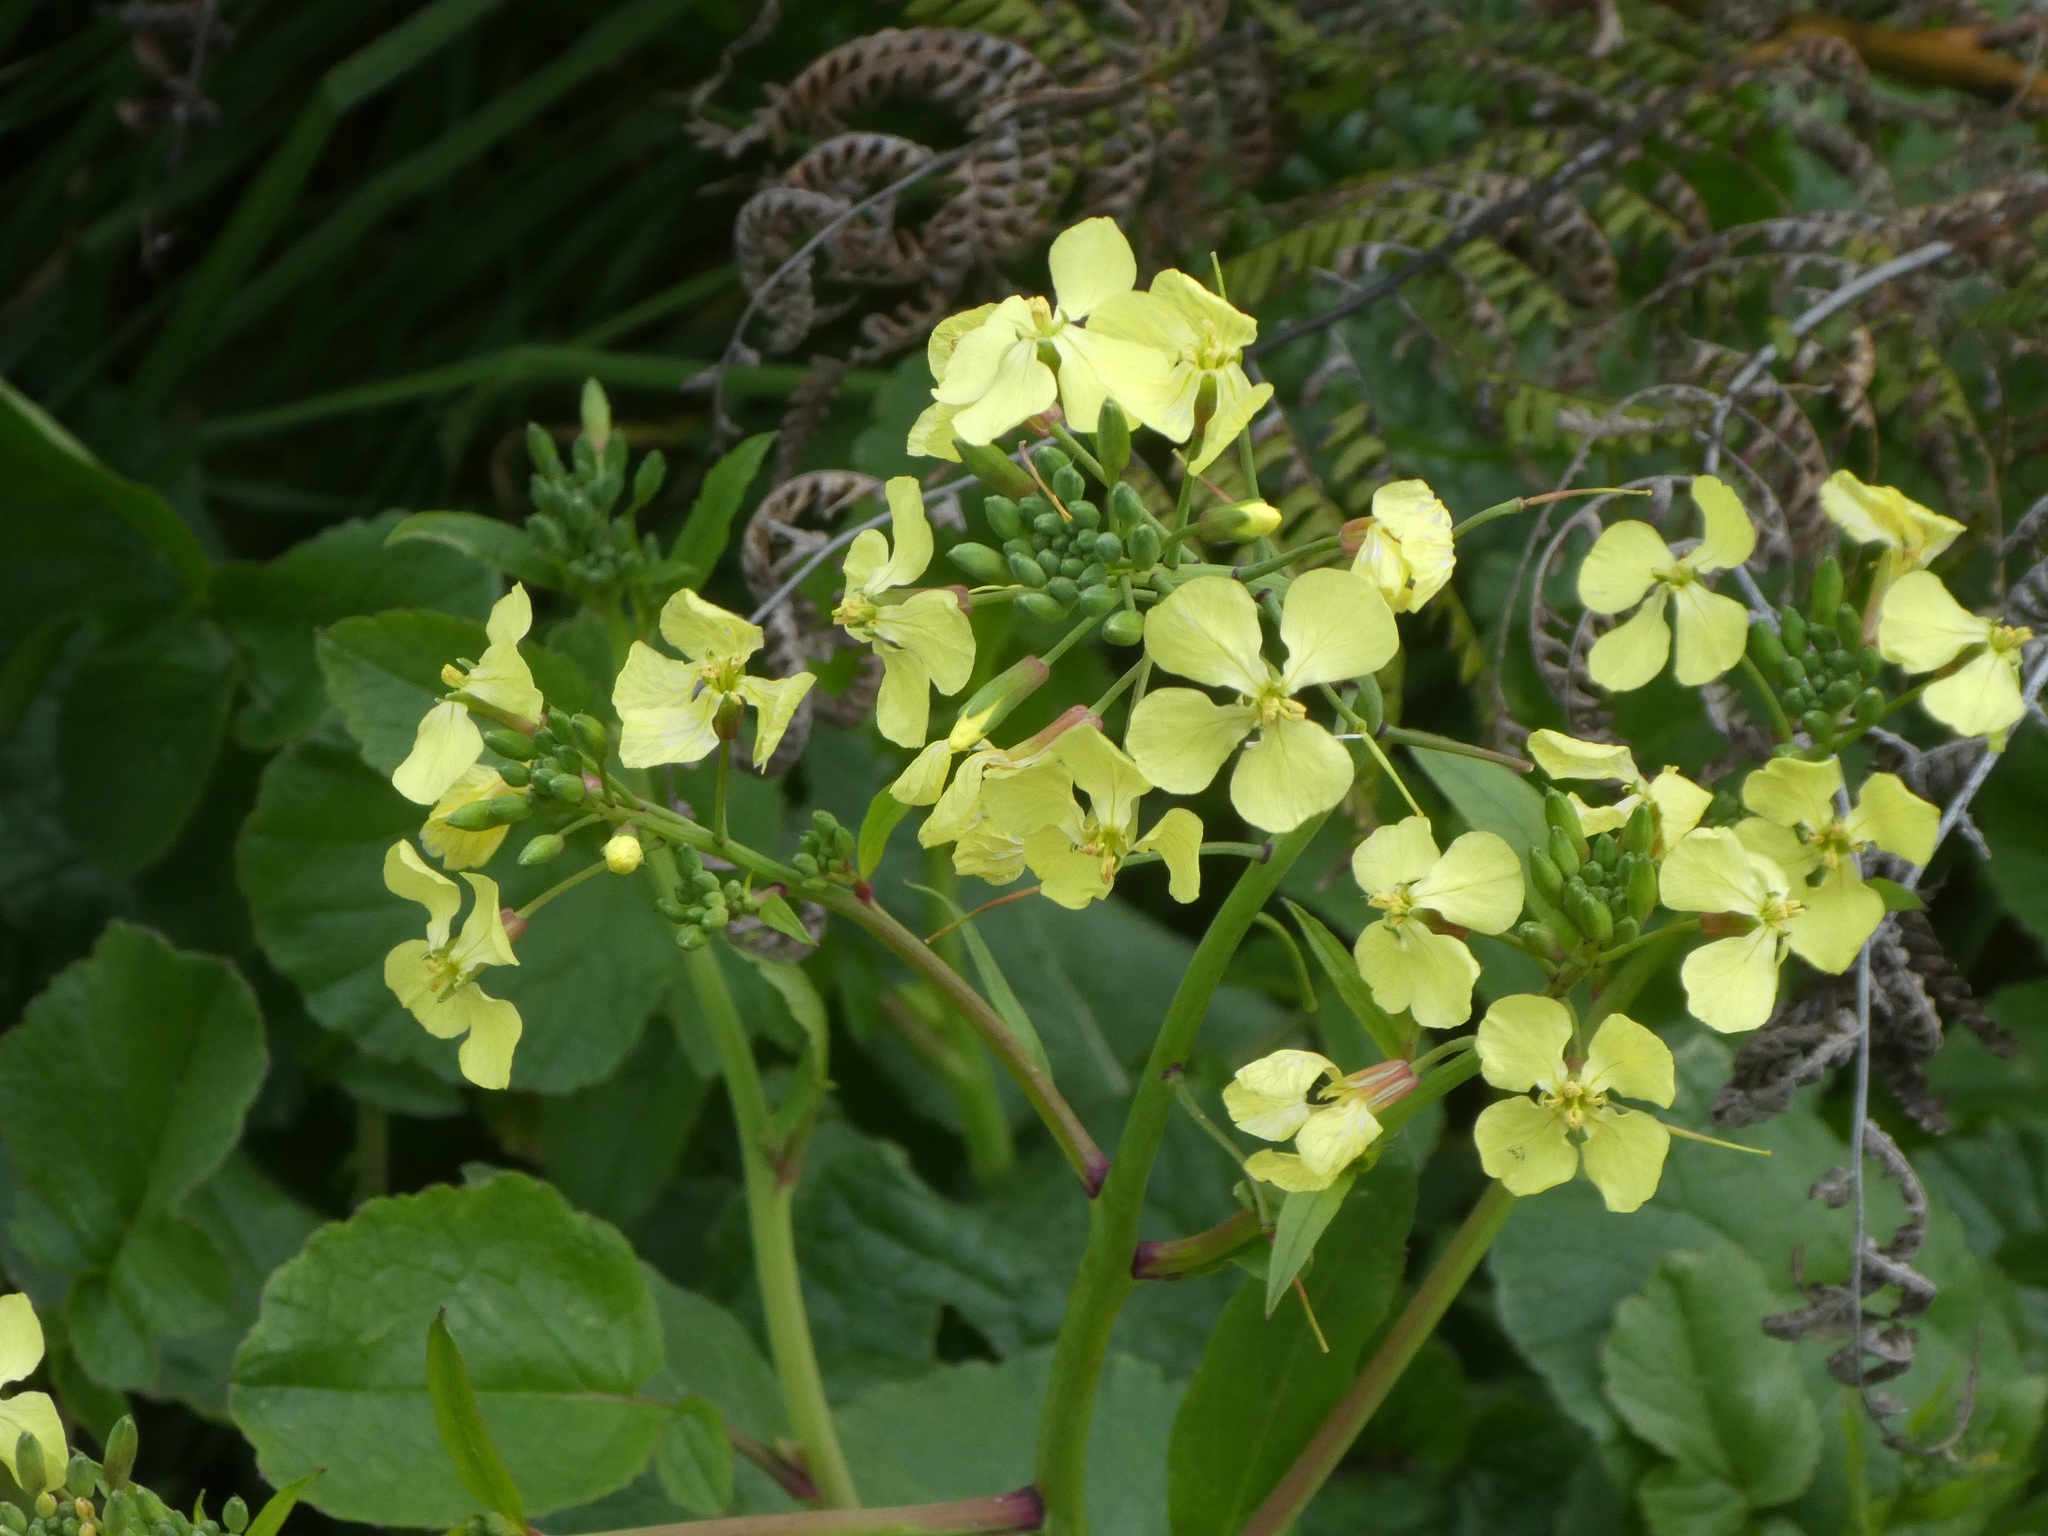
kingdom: Plantae
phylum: Tracheophyta
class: Magnoliopsida
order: Brassicales
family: Brassicaceae
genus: Raphanus
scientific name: Raphanus raphanistrum
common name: Wild radish
